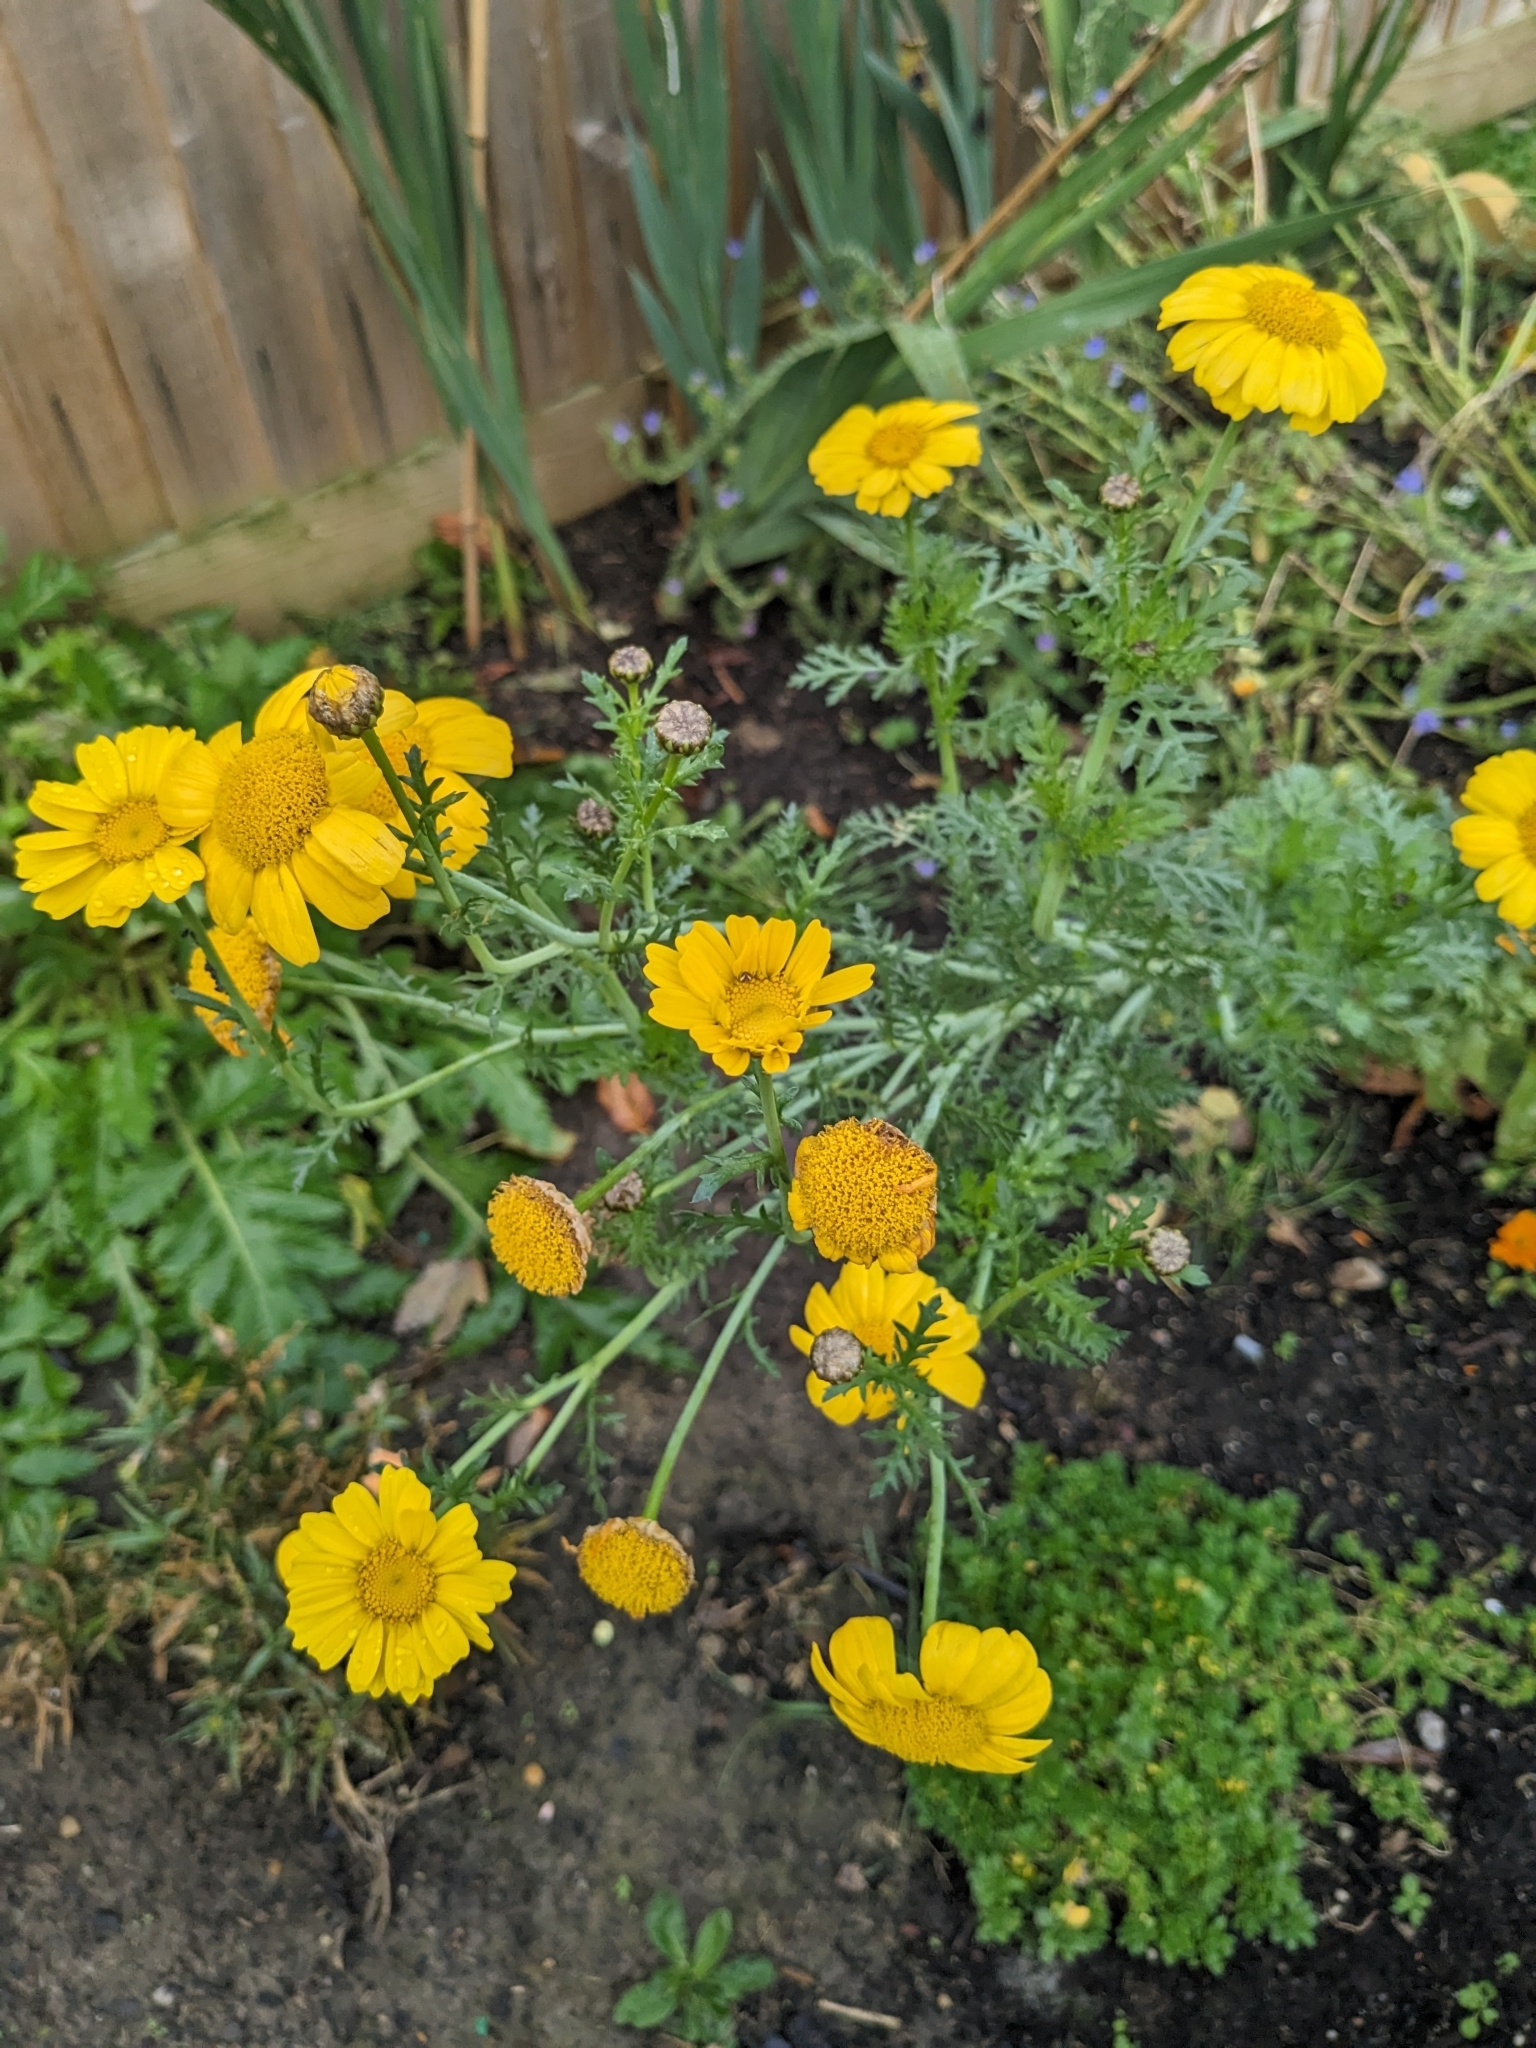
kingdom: Plantae
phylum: Tracheophyta
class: Magnoliopsida
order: Asterales
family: Asteraceae
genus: Glebionis
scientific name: Glebionis coronaria
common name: Crowndaisy
